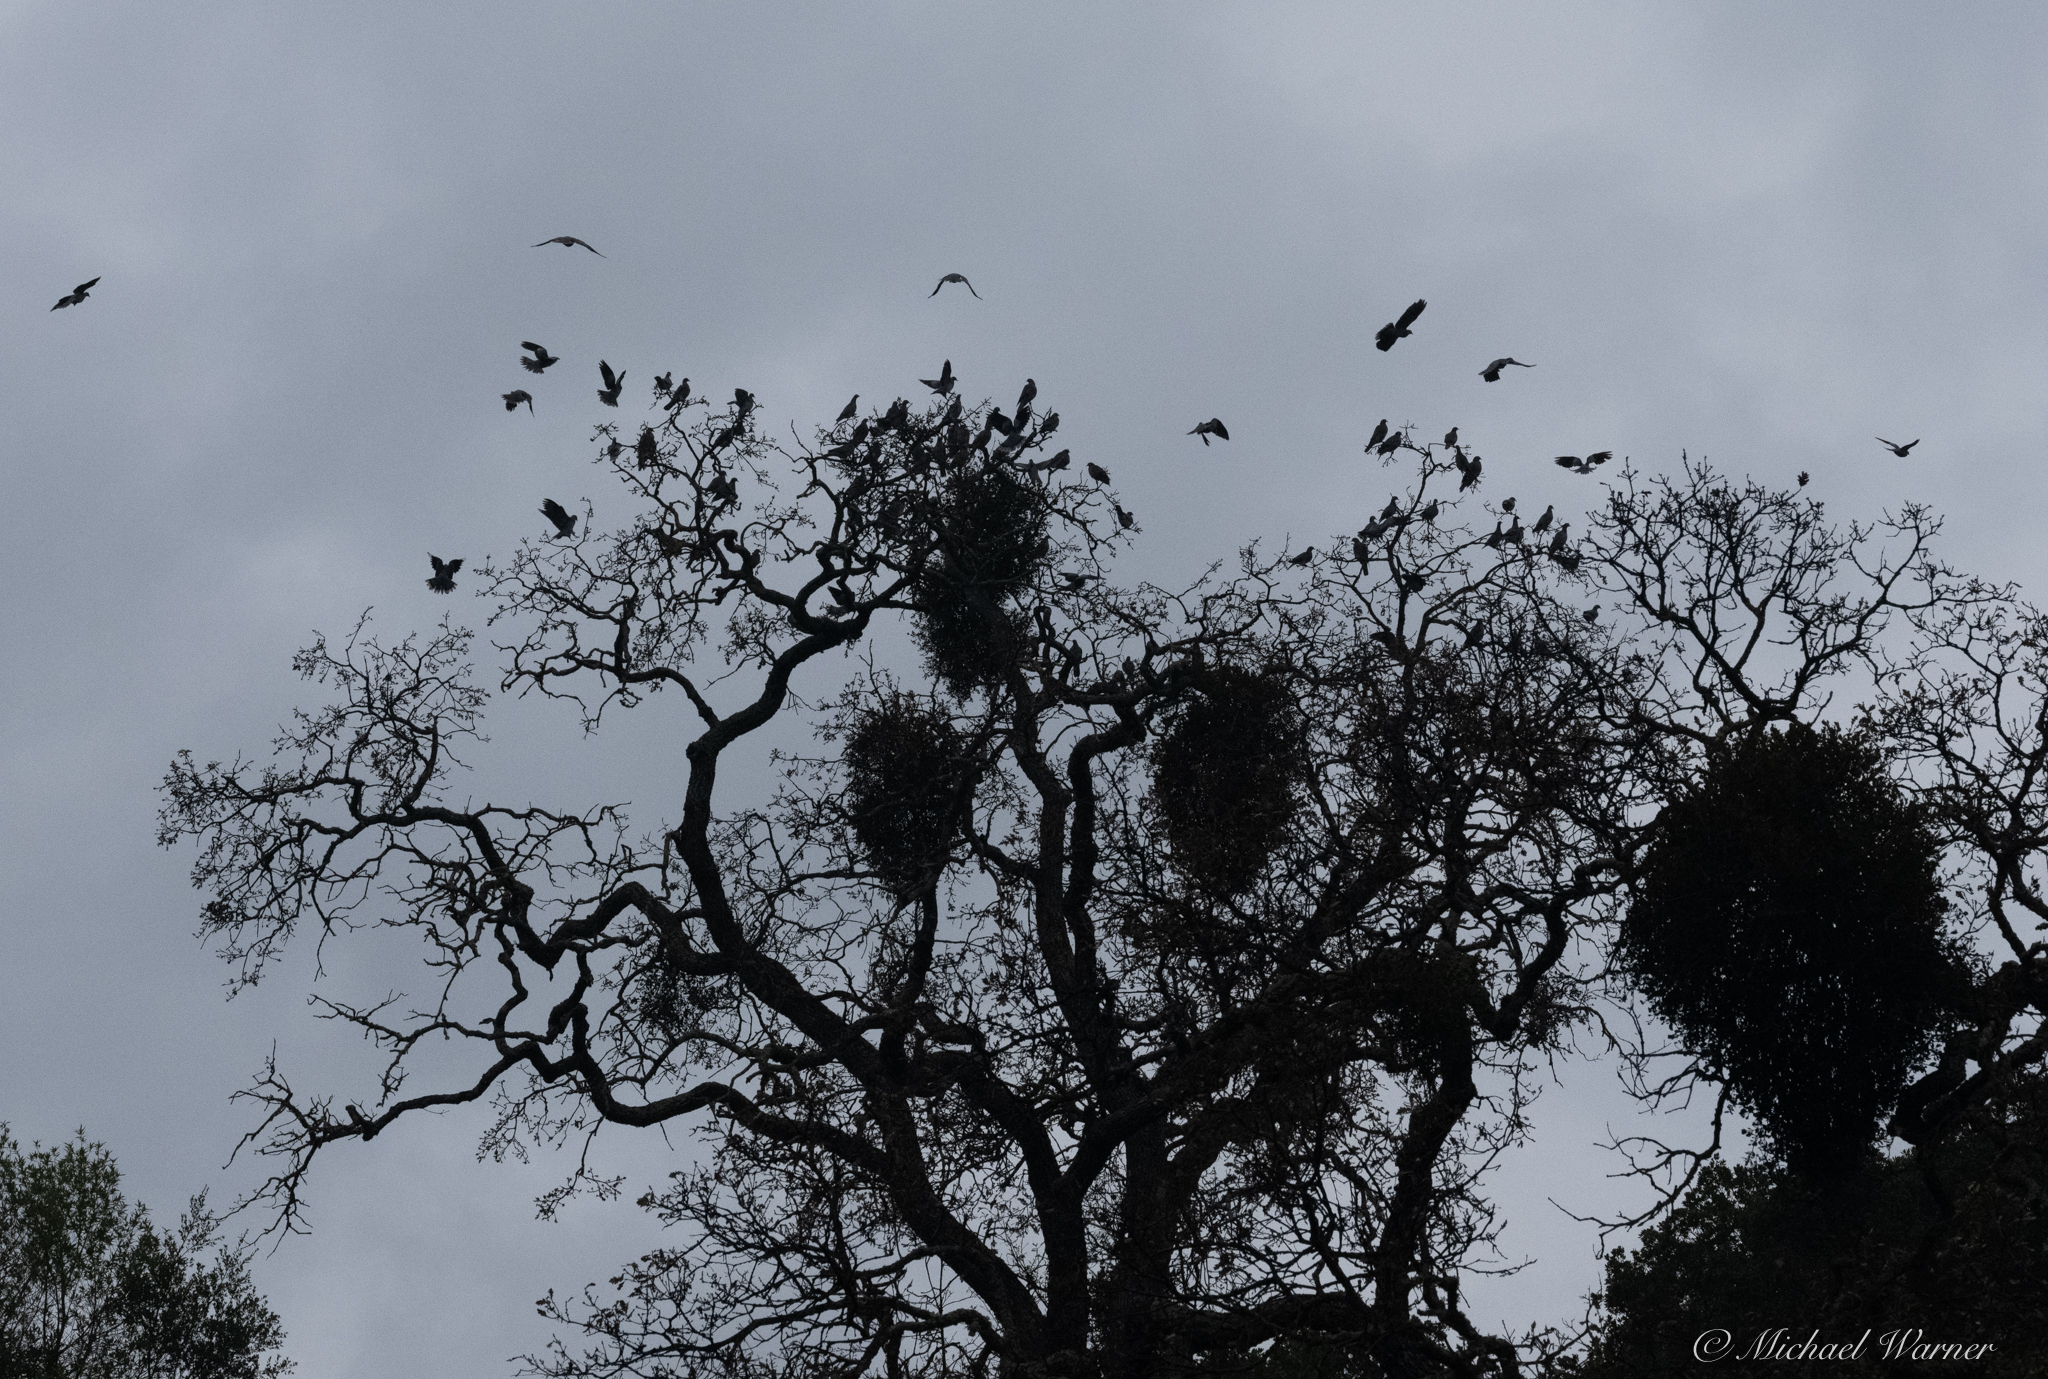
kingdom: Animalia
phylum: Chordata
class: Aves
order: Columbiformes
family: Columbidae
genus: Patagioenas
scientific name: Patagioenas fasciata
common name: Band-tailed pigeon
